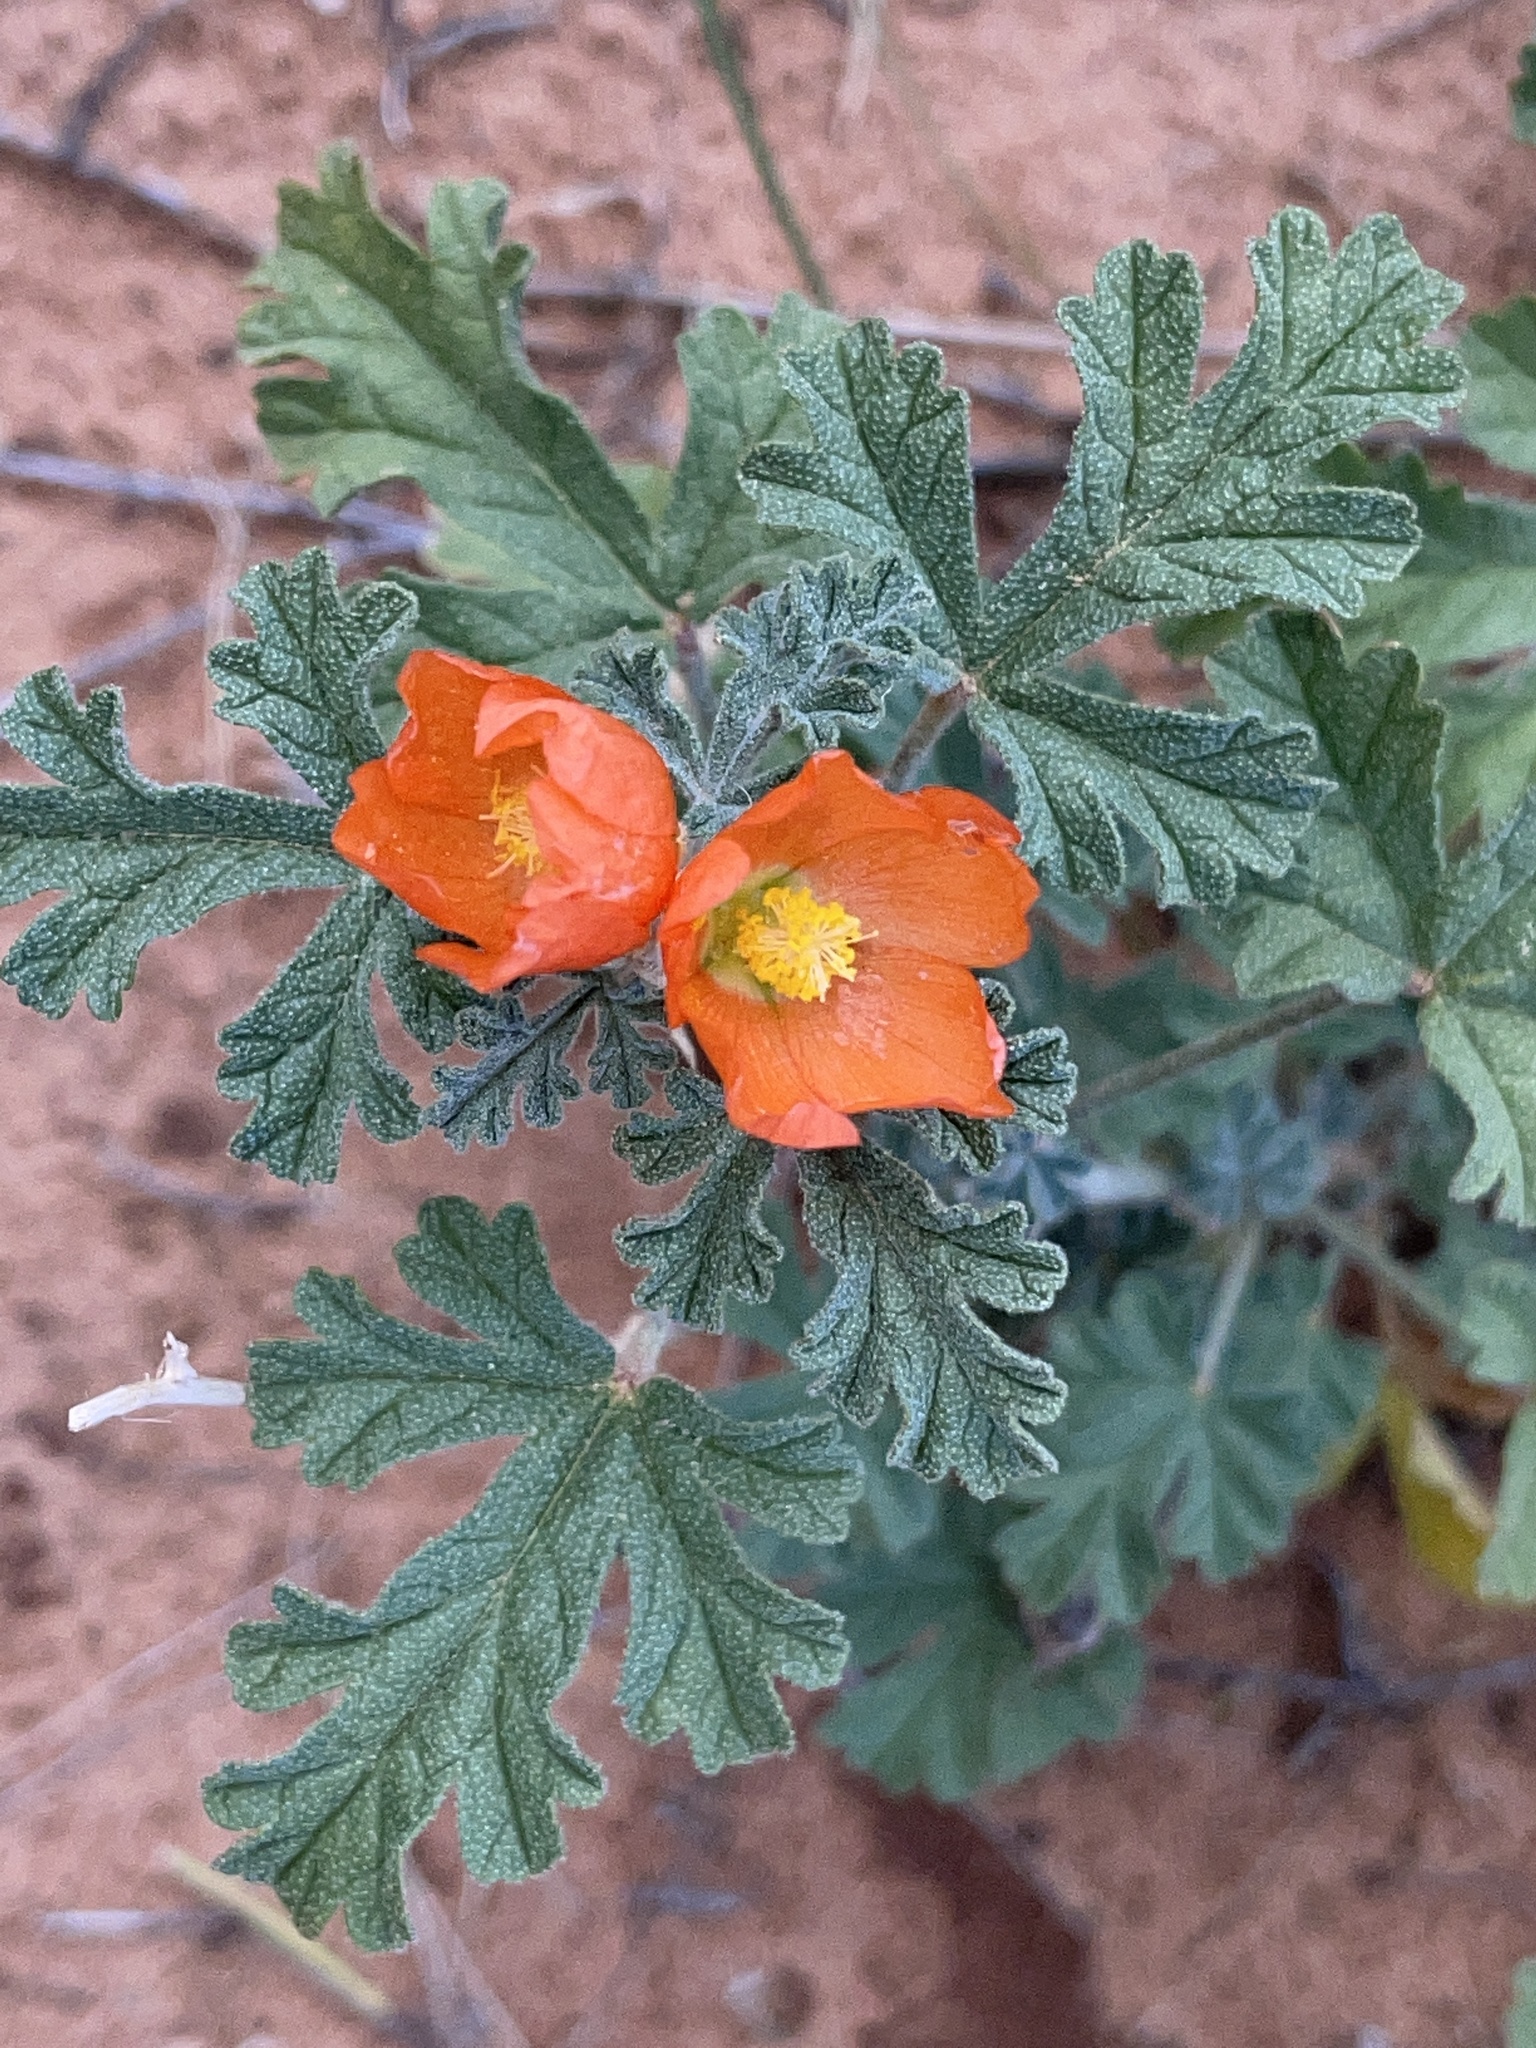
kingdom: Plantae
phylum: Tracheophyta
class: Magnoliopsida
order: Malvales
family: Malvaceae
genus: Sphaeralcea
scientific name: Sphaeralcea grossulariifolia
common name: Current-leaf globe-mallow
